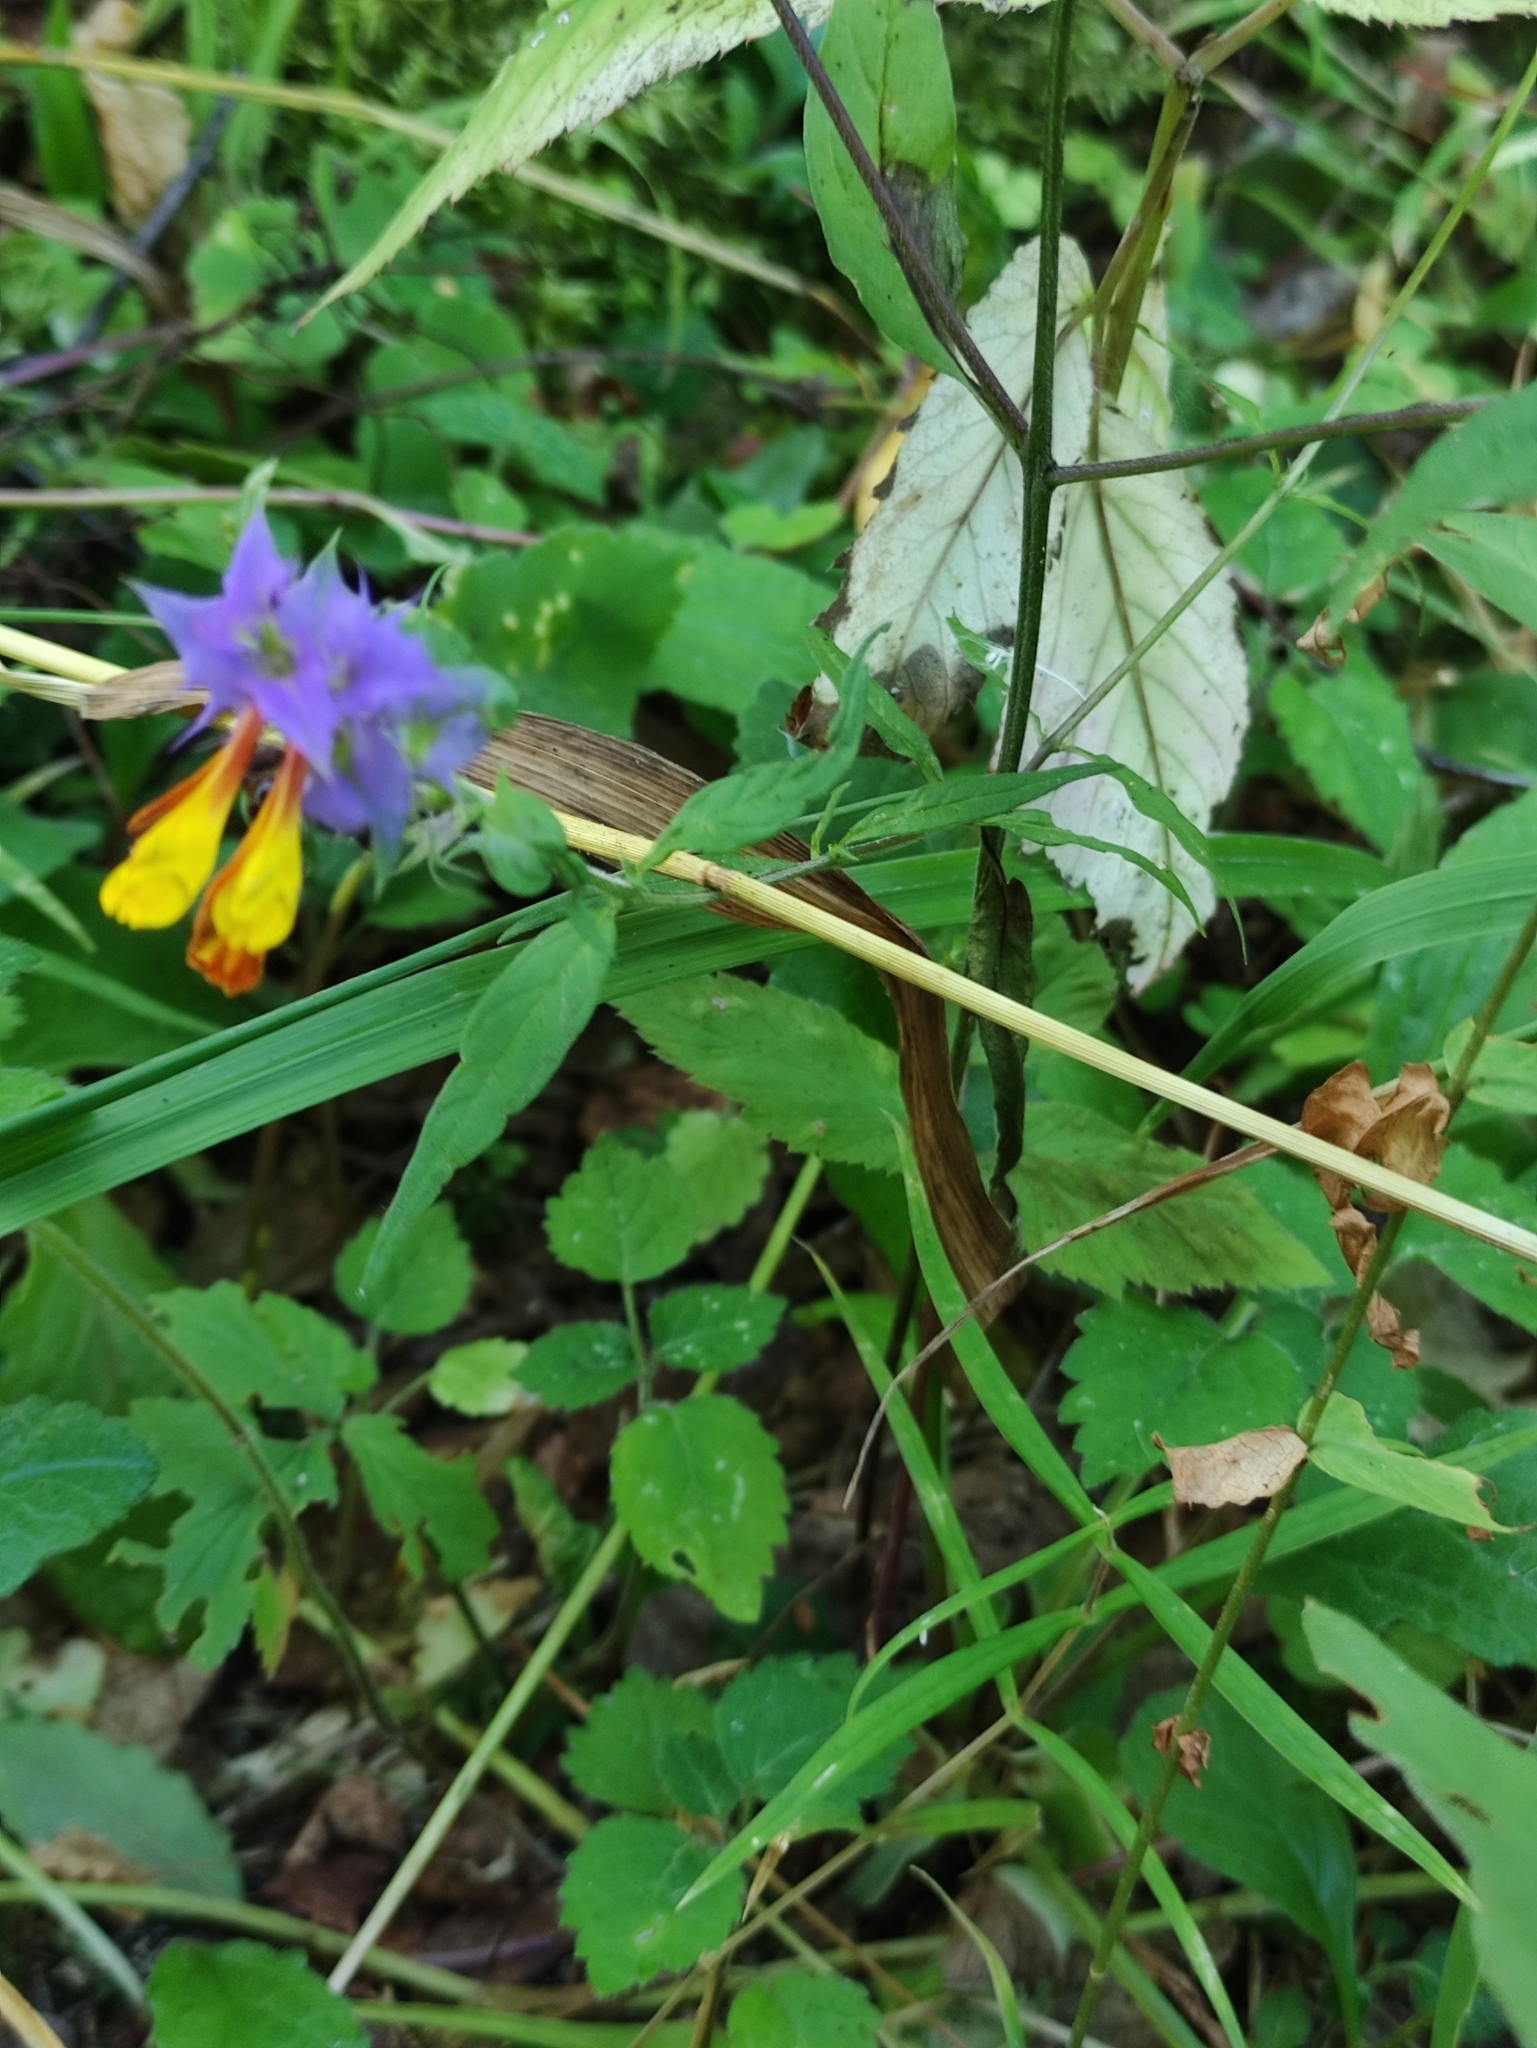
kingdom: Plantae
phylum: Tracheophyta
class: Magnoliopsida
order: Lamiales
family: Orobanchaceae
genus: Melampyrum
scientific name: Melampyrum nemorosum
